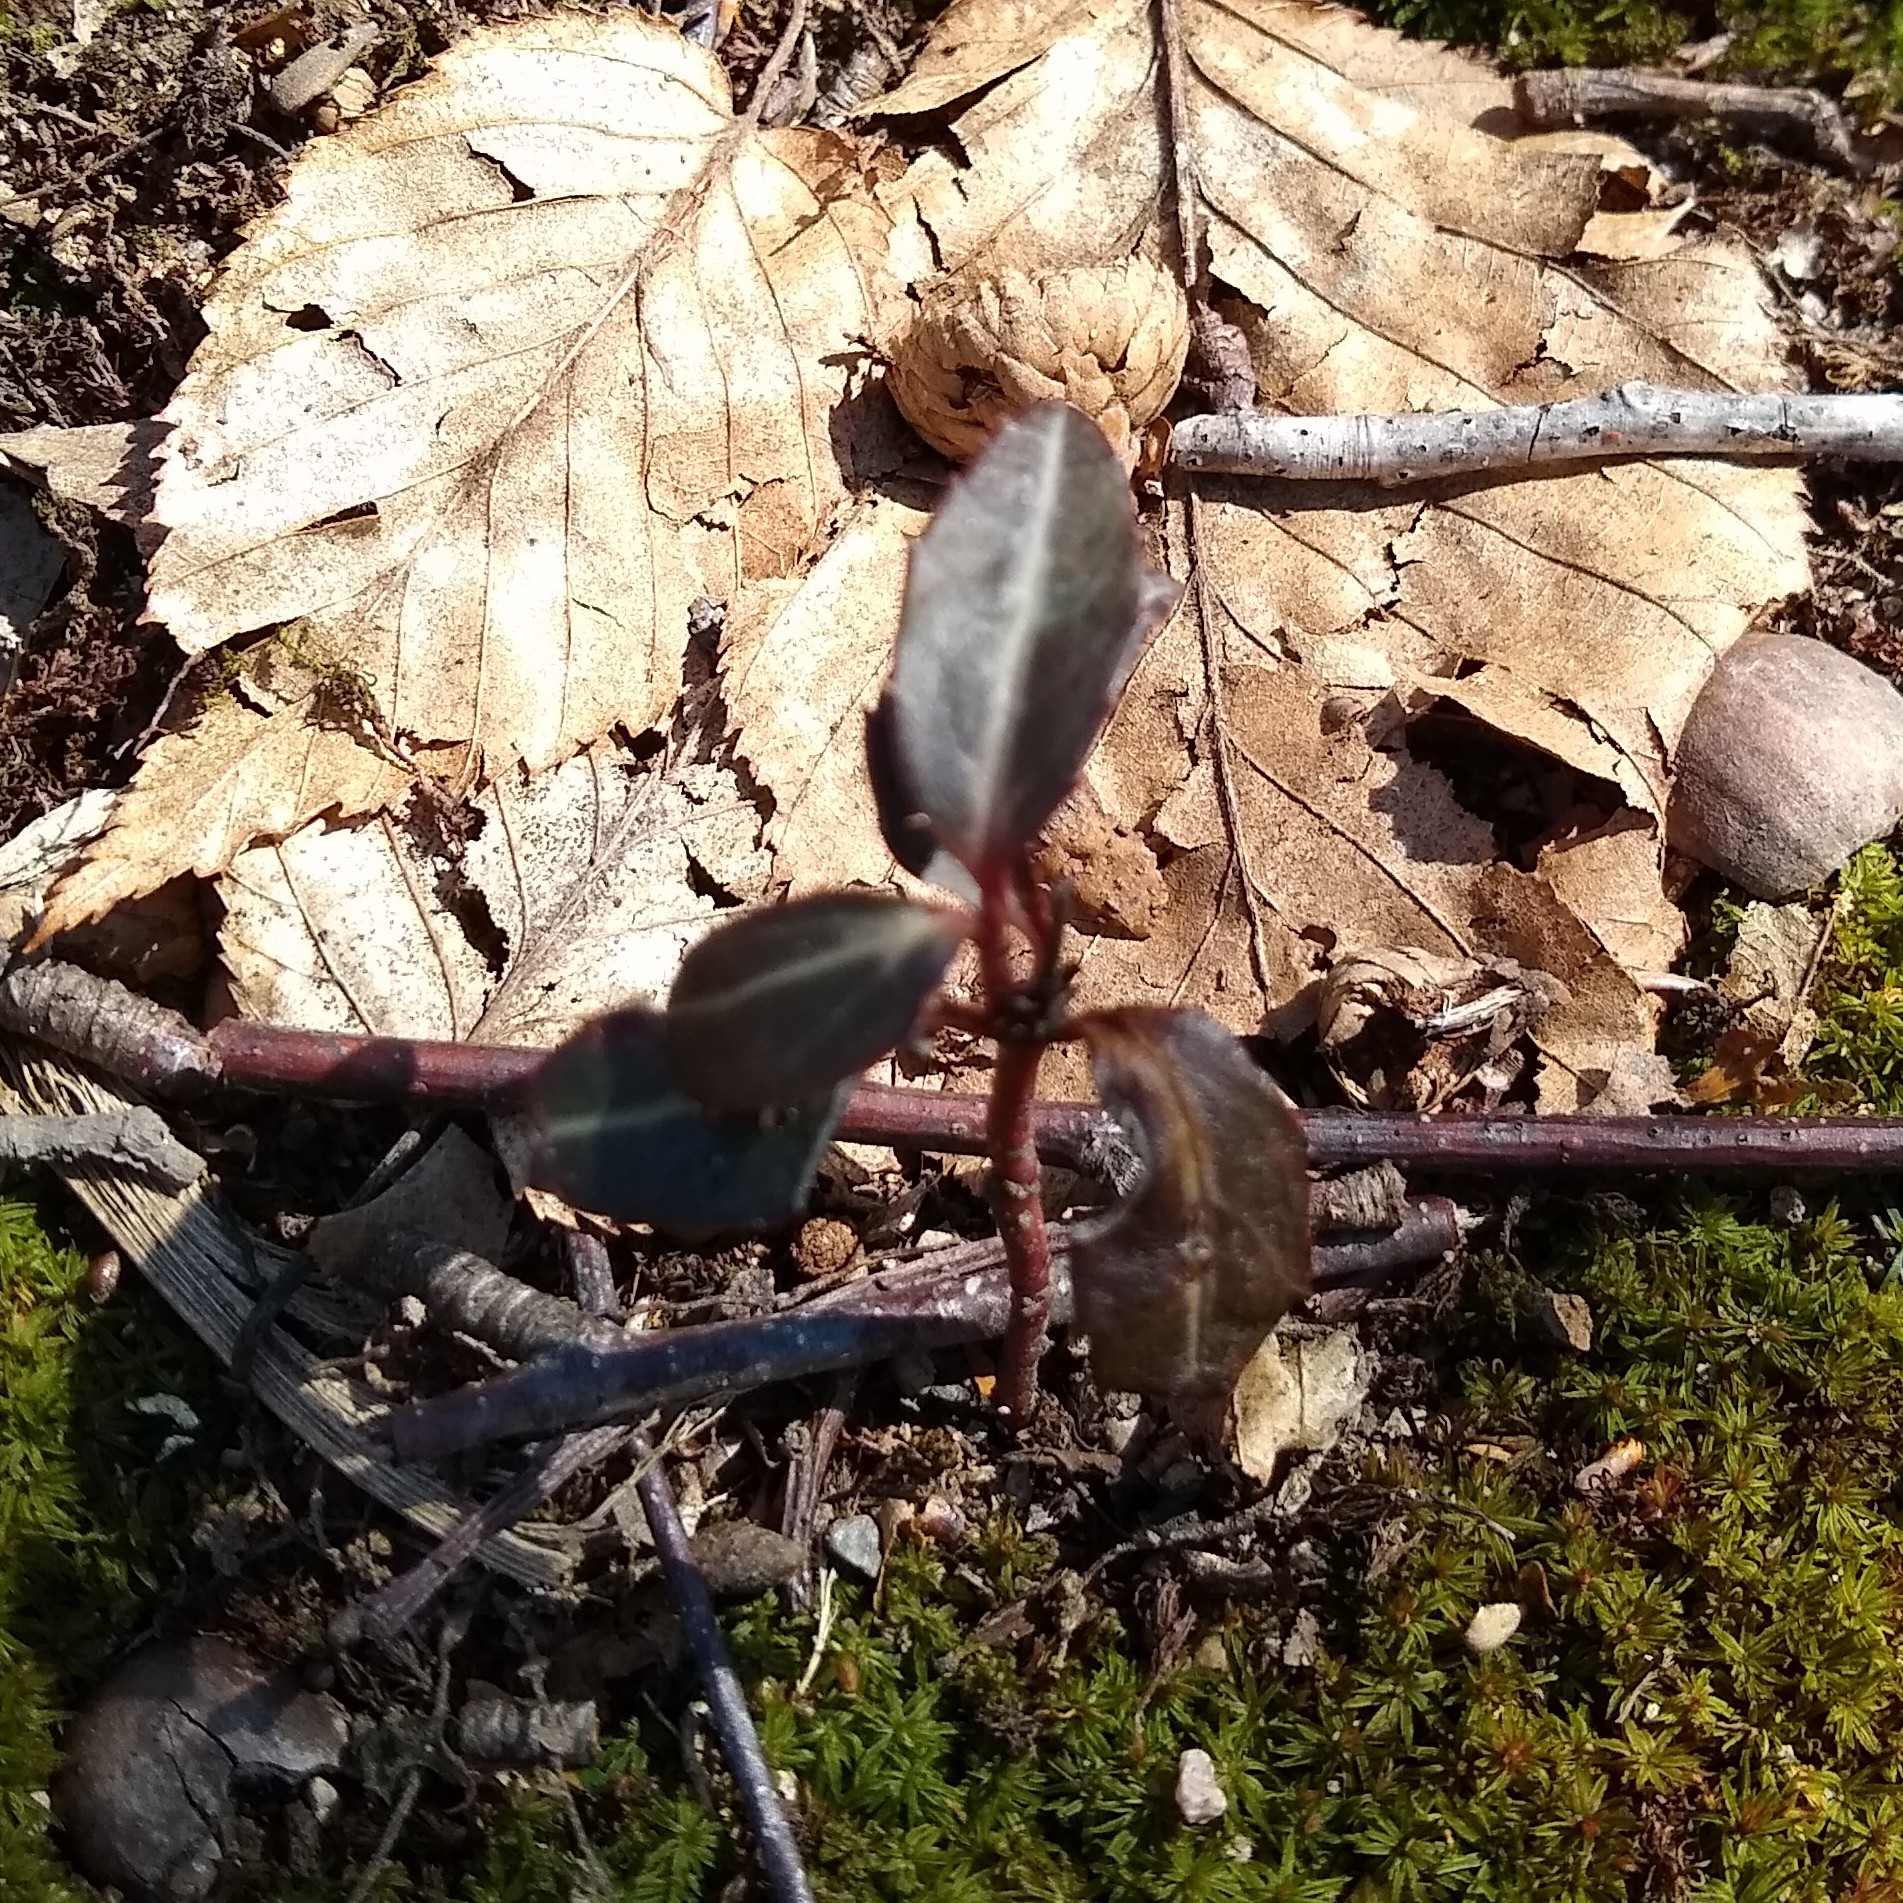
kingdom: Plantae
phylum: Tracheophyta
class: Magnoliopsida
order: Ericales
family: Ericaceae
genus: Chimaphila
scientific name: Chimaphila maculata
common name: Spotted pipsissewa
